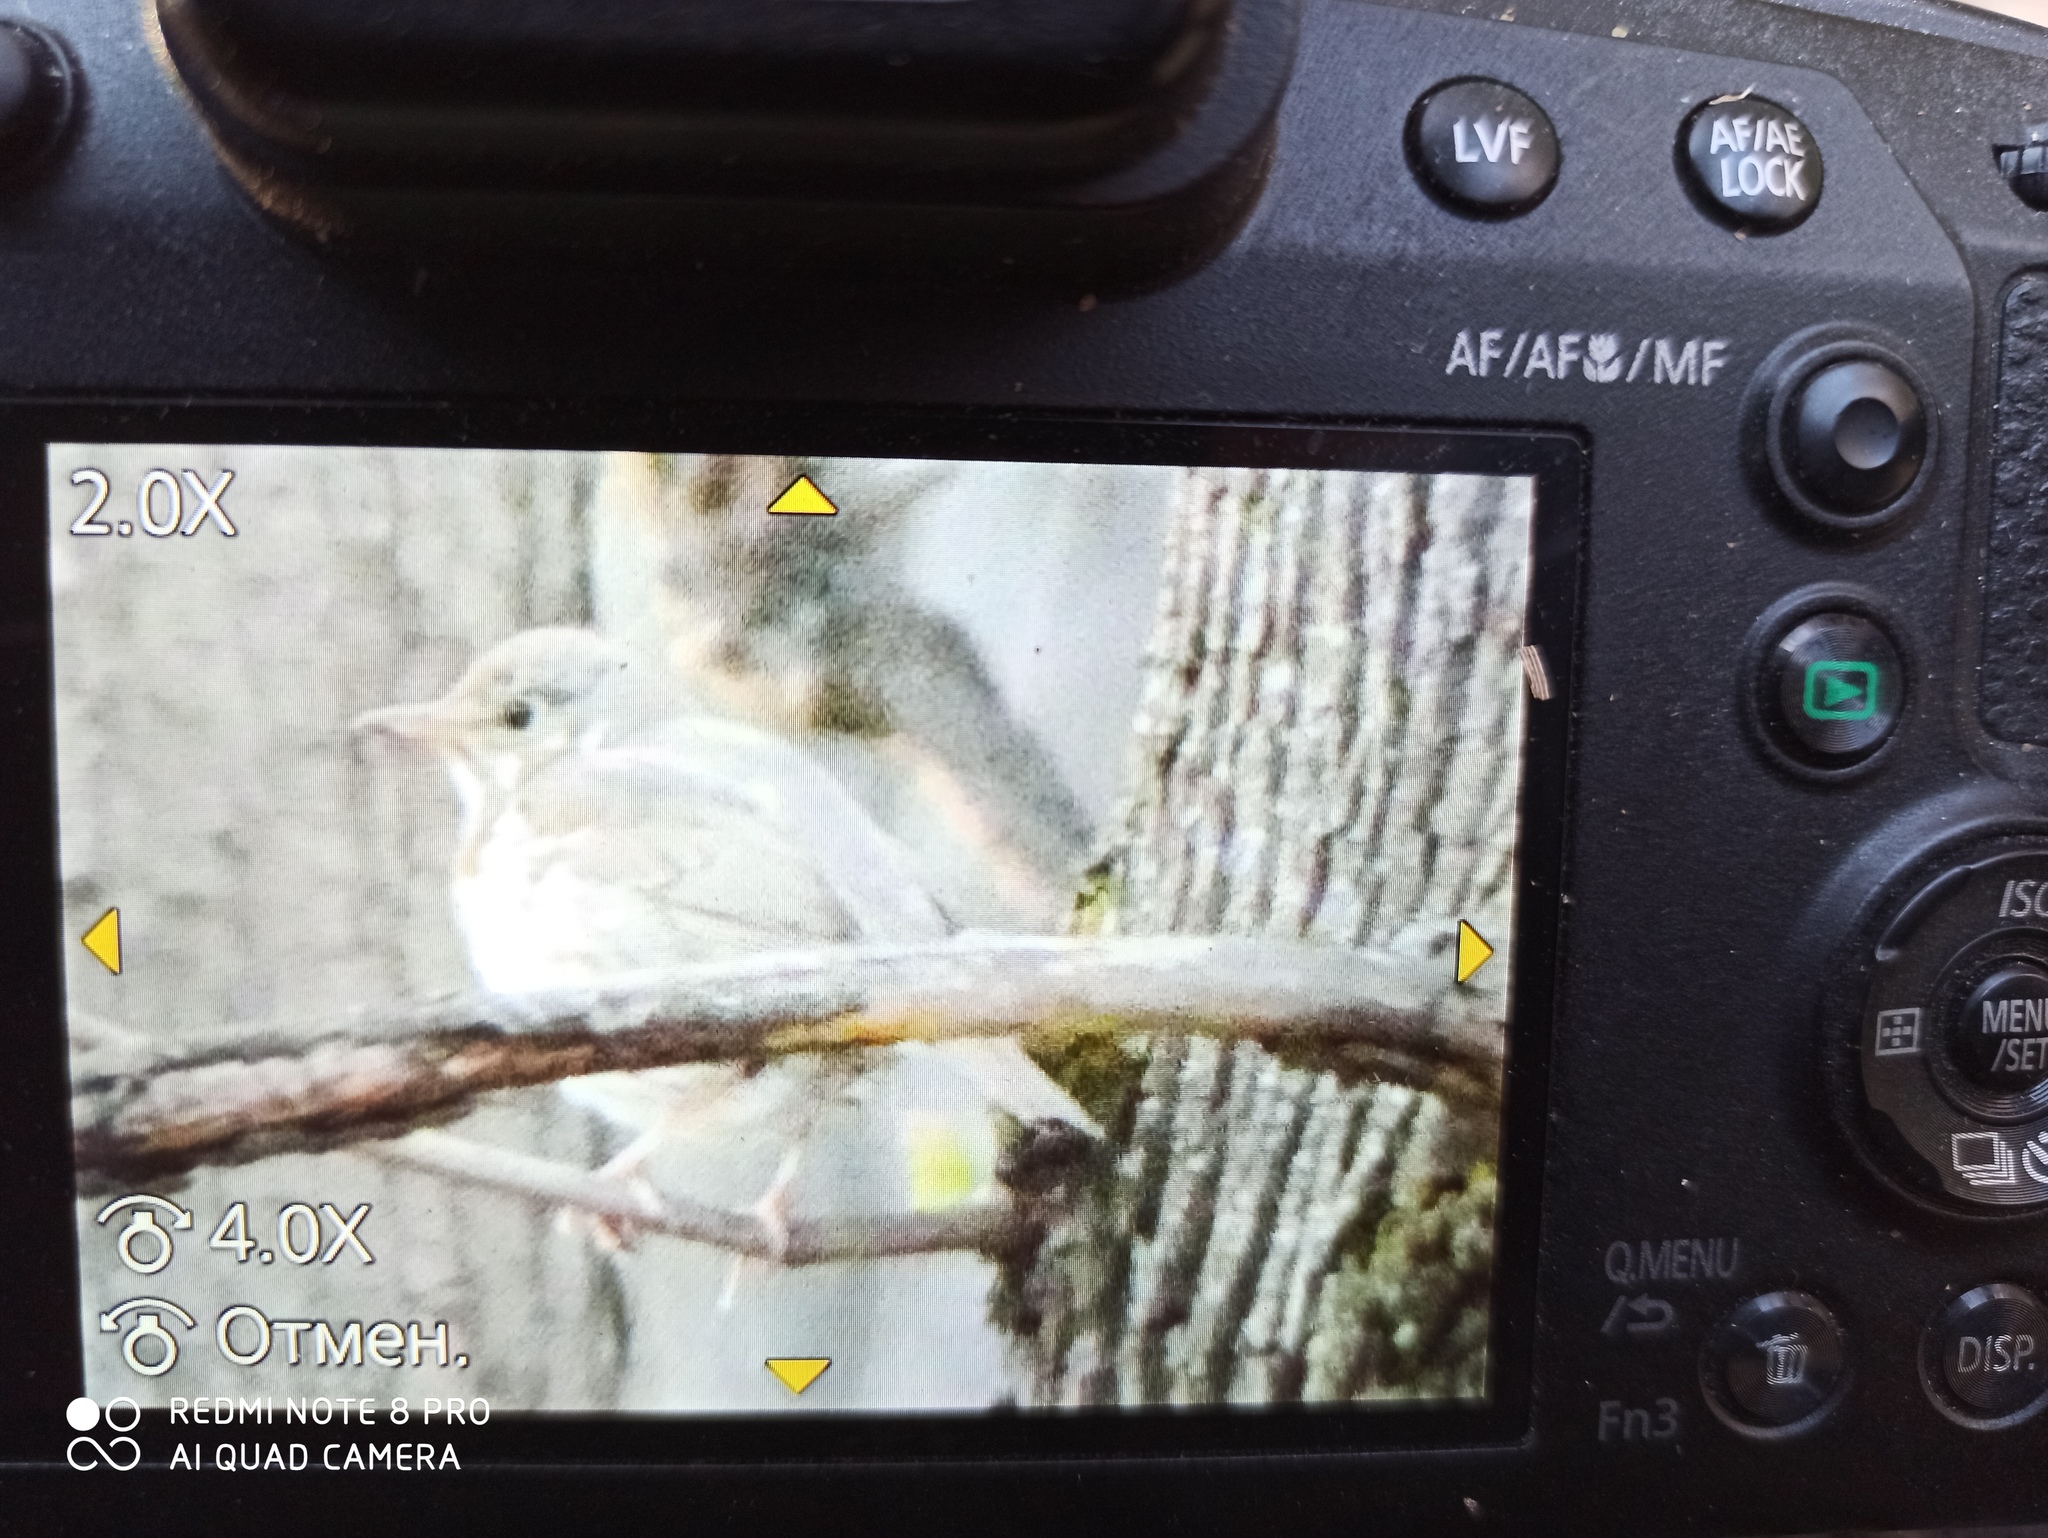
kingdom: Animalia
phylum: Chordata
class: Aves
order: Passeriformes
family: Turdidae
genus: Turdus
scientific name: Turdus philomelos
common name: Song thrush
